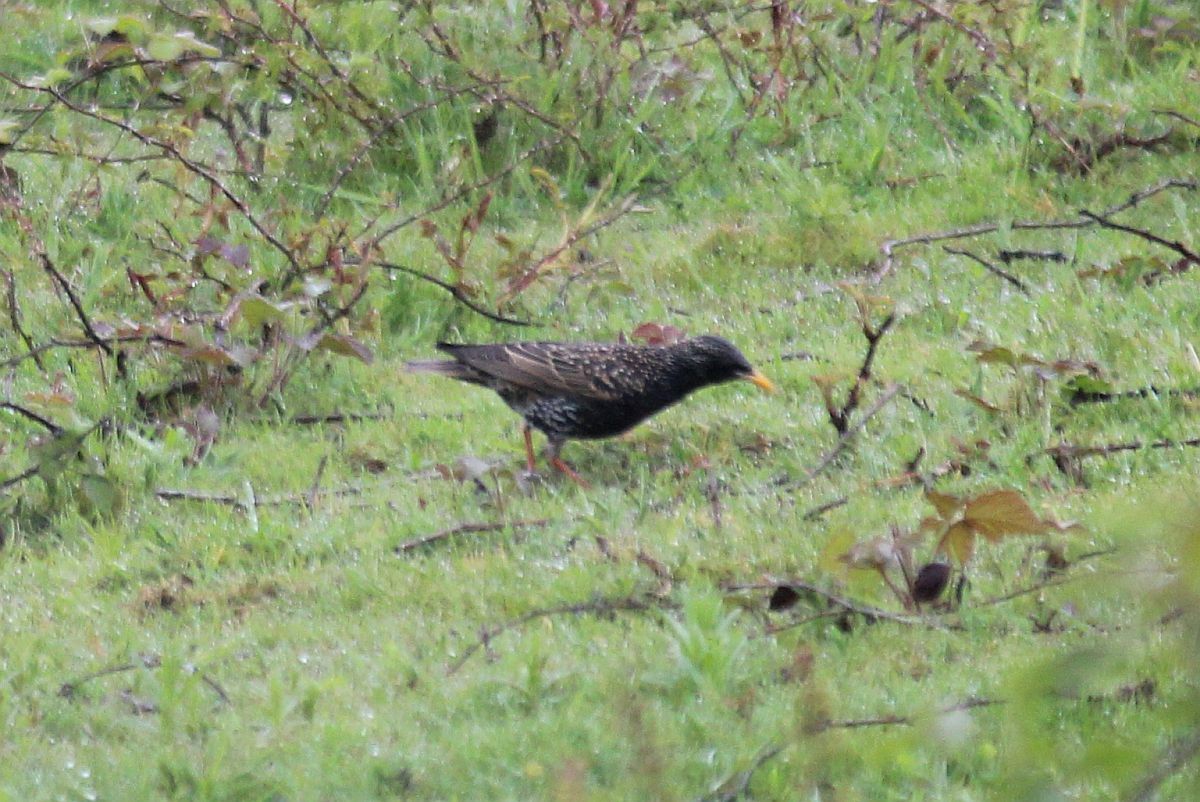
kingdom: Animalia
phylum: Chordata
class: Aves
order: Passeriformes
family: Sturnidae
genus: Sturnus
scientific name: Sturnus vulgaris
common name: Common starling
